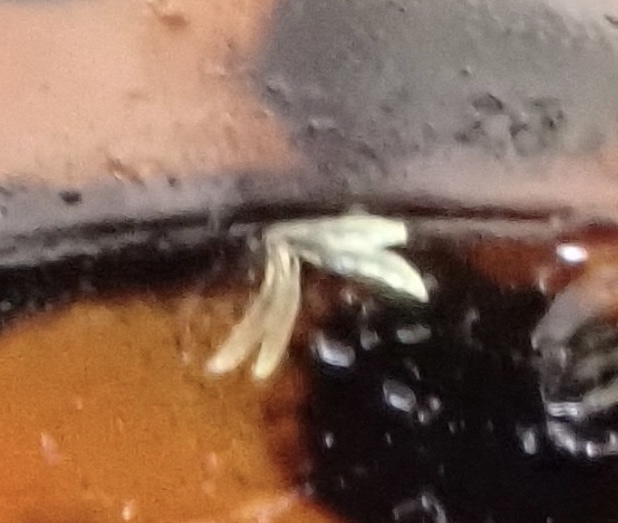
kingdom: Fungi
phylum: Ascomycota
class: Laboulbeniomycetes
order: Laboulbeniales
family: Laboulbeniaceae
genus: Hesperomyces
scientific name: Hesperomyces harmoniae
